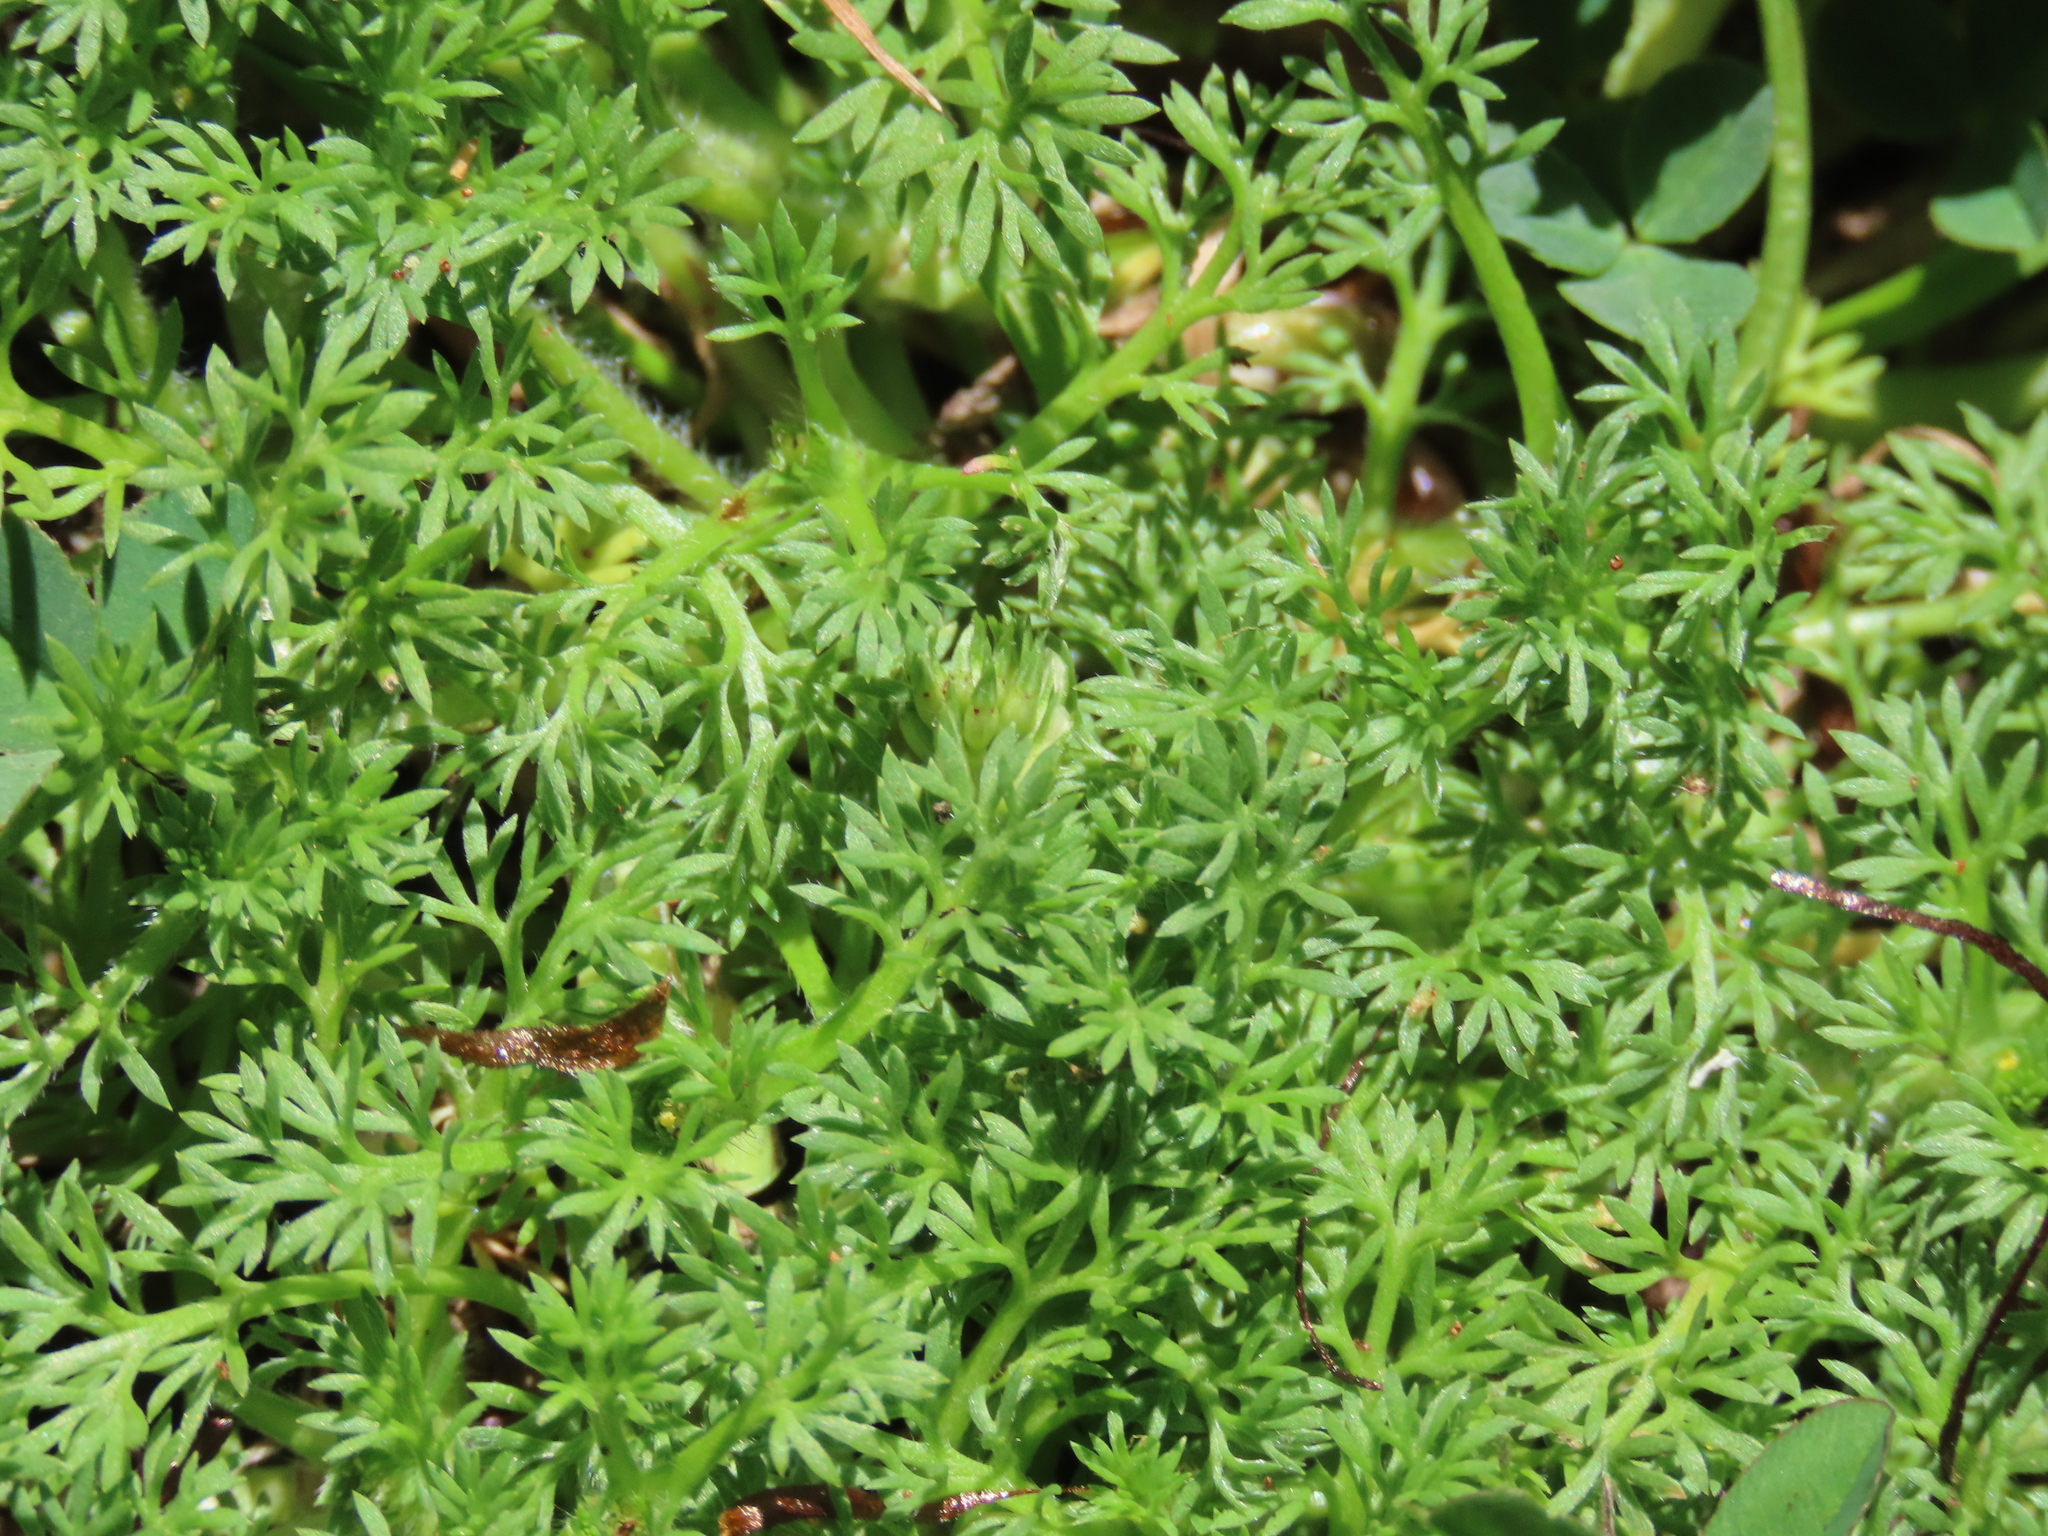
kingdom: Plantae
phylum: Tracheophyta
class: Magnoliopsida
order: Asterales
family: Asteraceae
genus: Soliva
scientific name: Soliva sessilis
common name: Field burrweed
